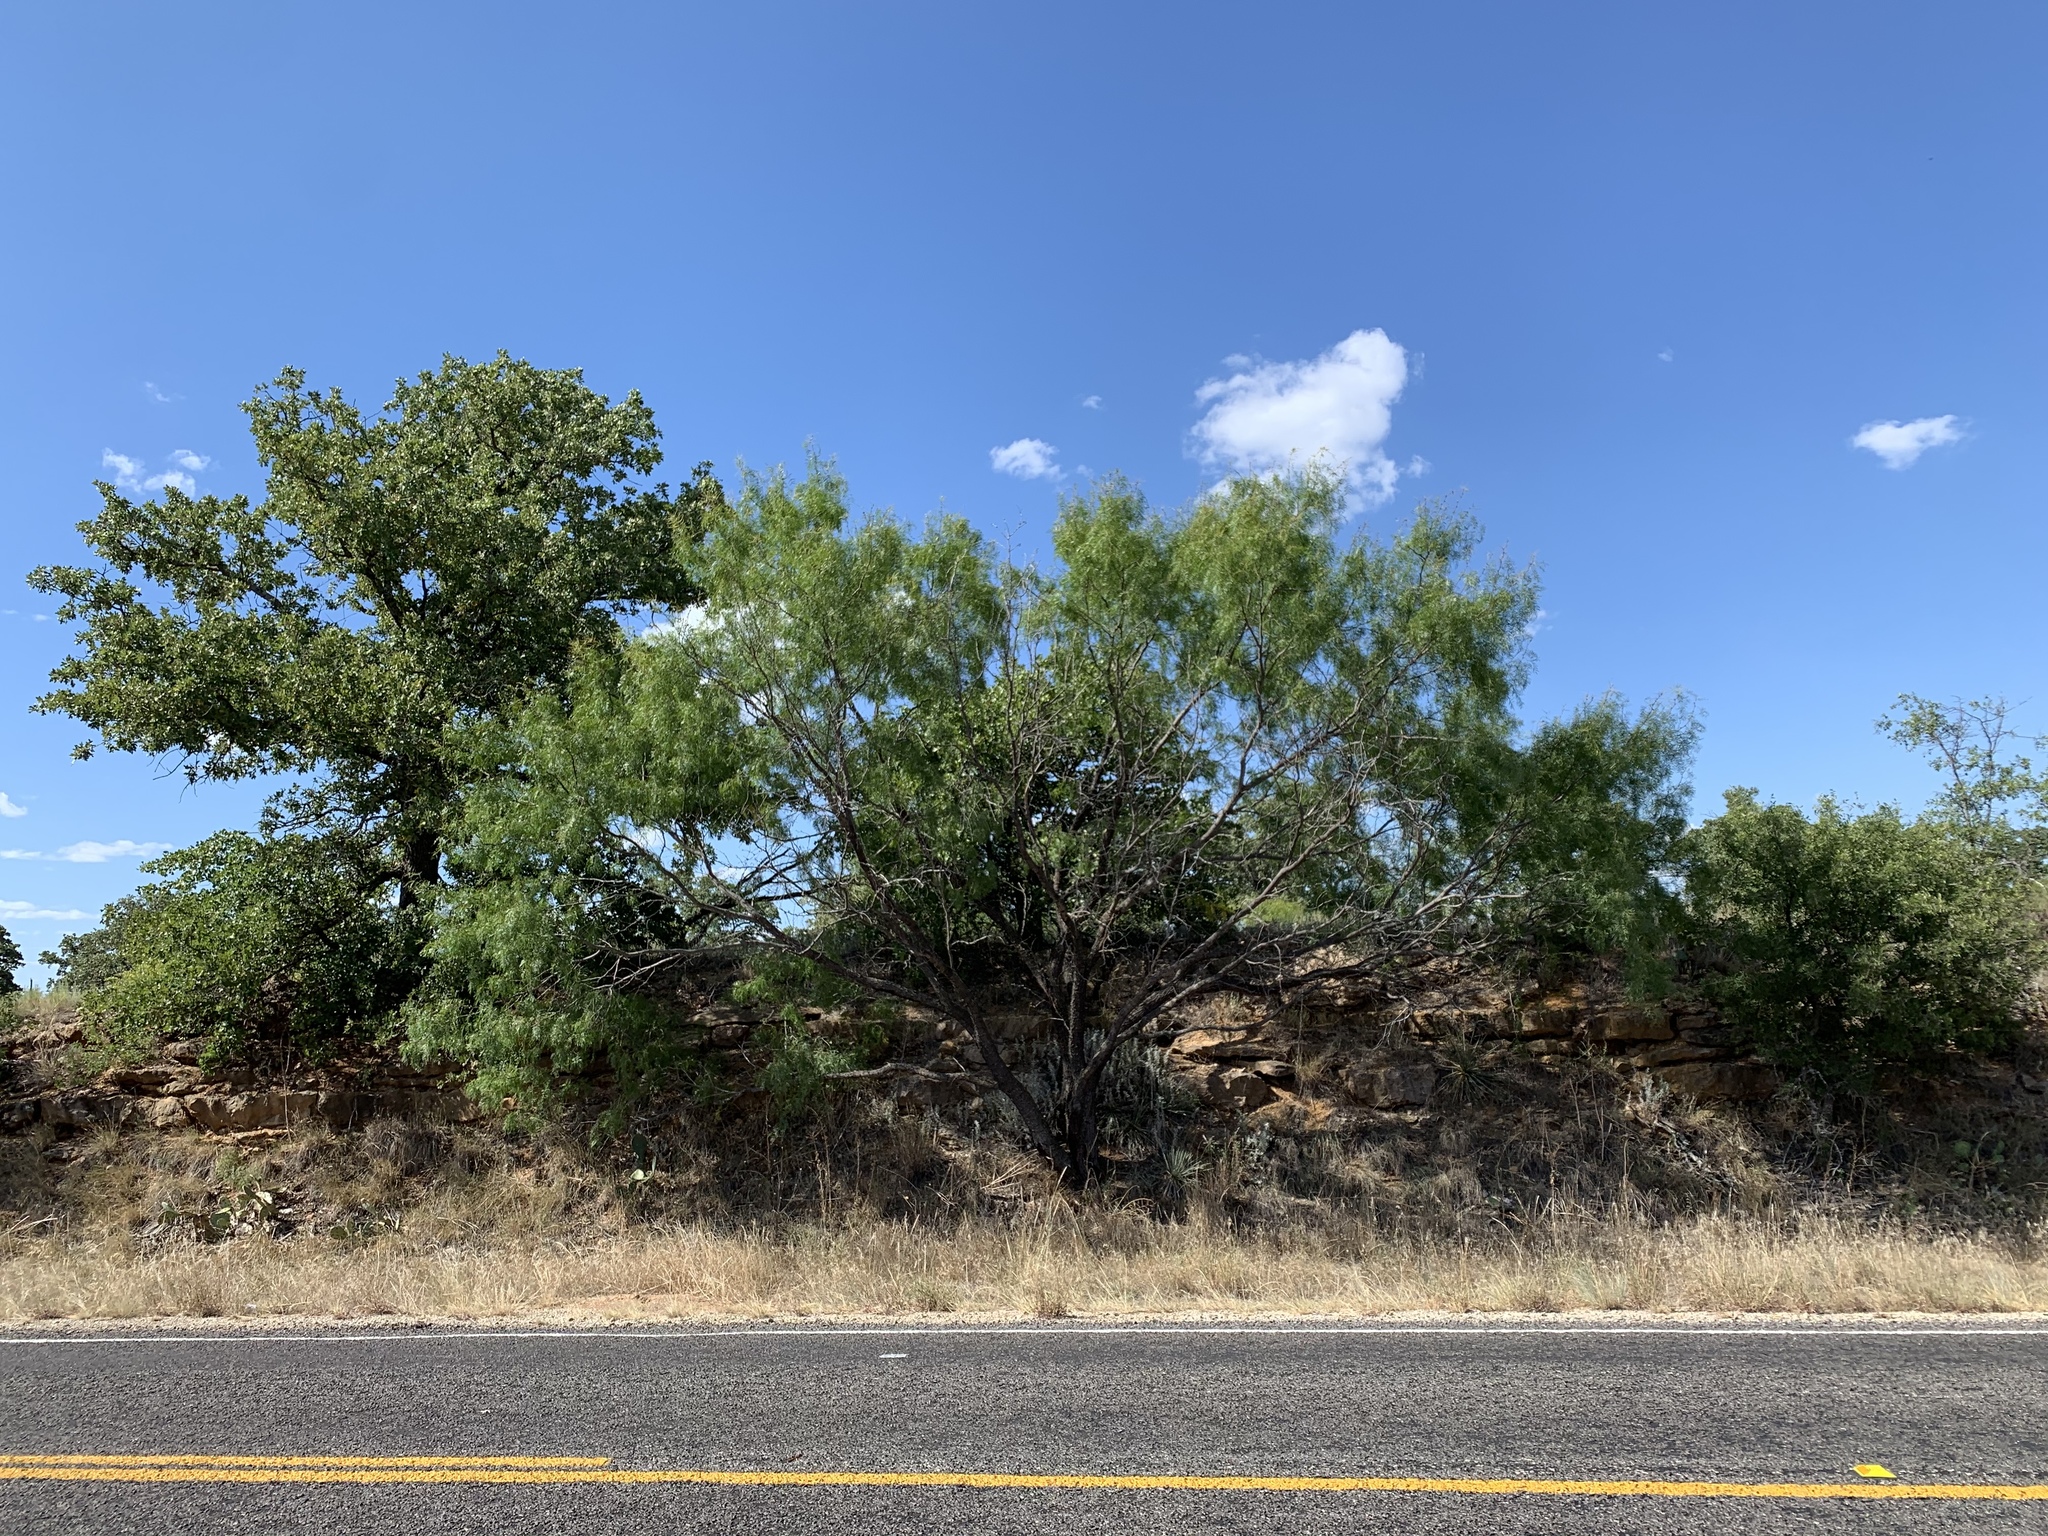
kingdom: Plantae
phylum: Tracheophyta
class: Magnoliopsida
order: Fabales
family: Fabaceae
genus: Prosopis
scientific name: Prosopis glandulosa
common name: Honey mesquite
